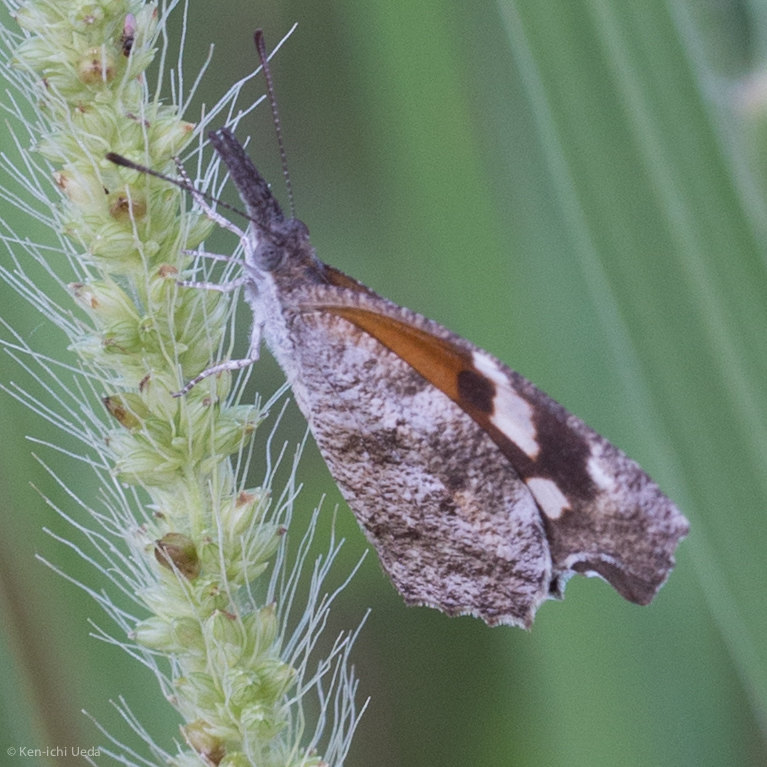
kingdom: Animalia
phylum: Arthropoda
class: Insecta
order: Lepidoptera
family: Nymphalidae
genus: Libytheana
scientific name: Libytheana carinenta
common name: American snout
